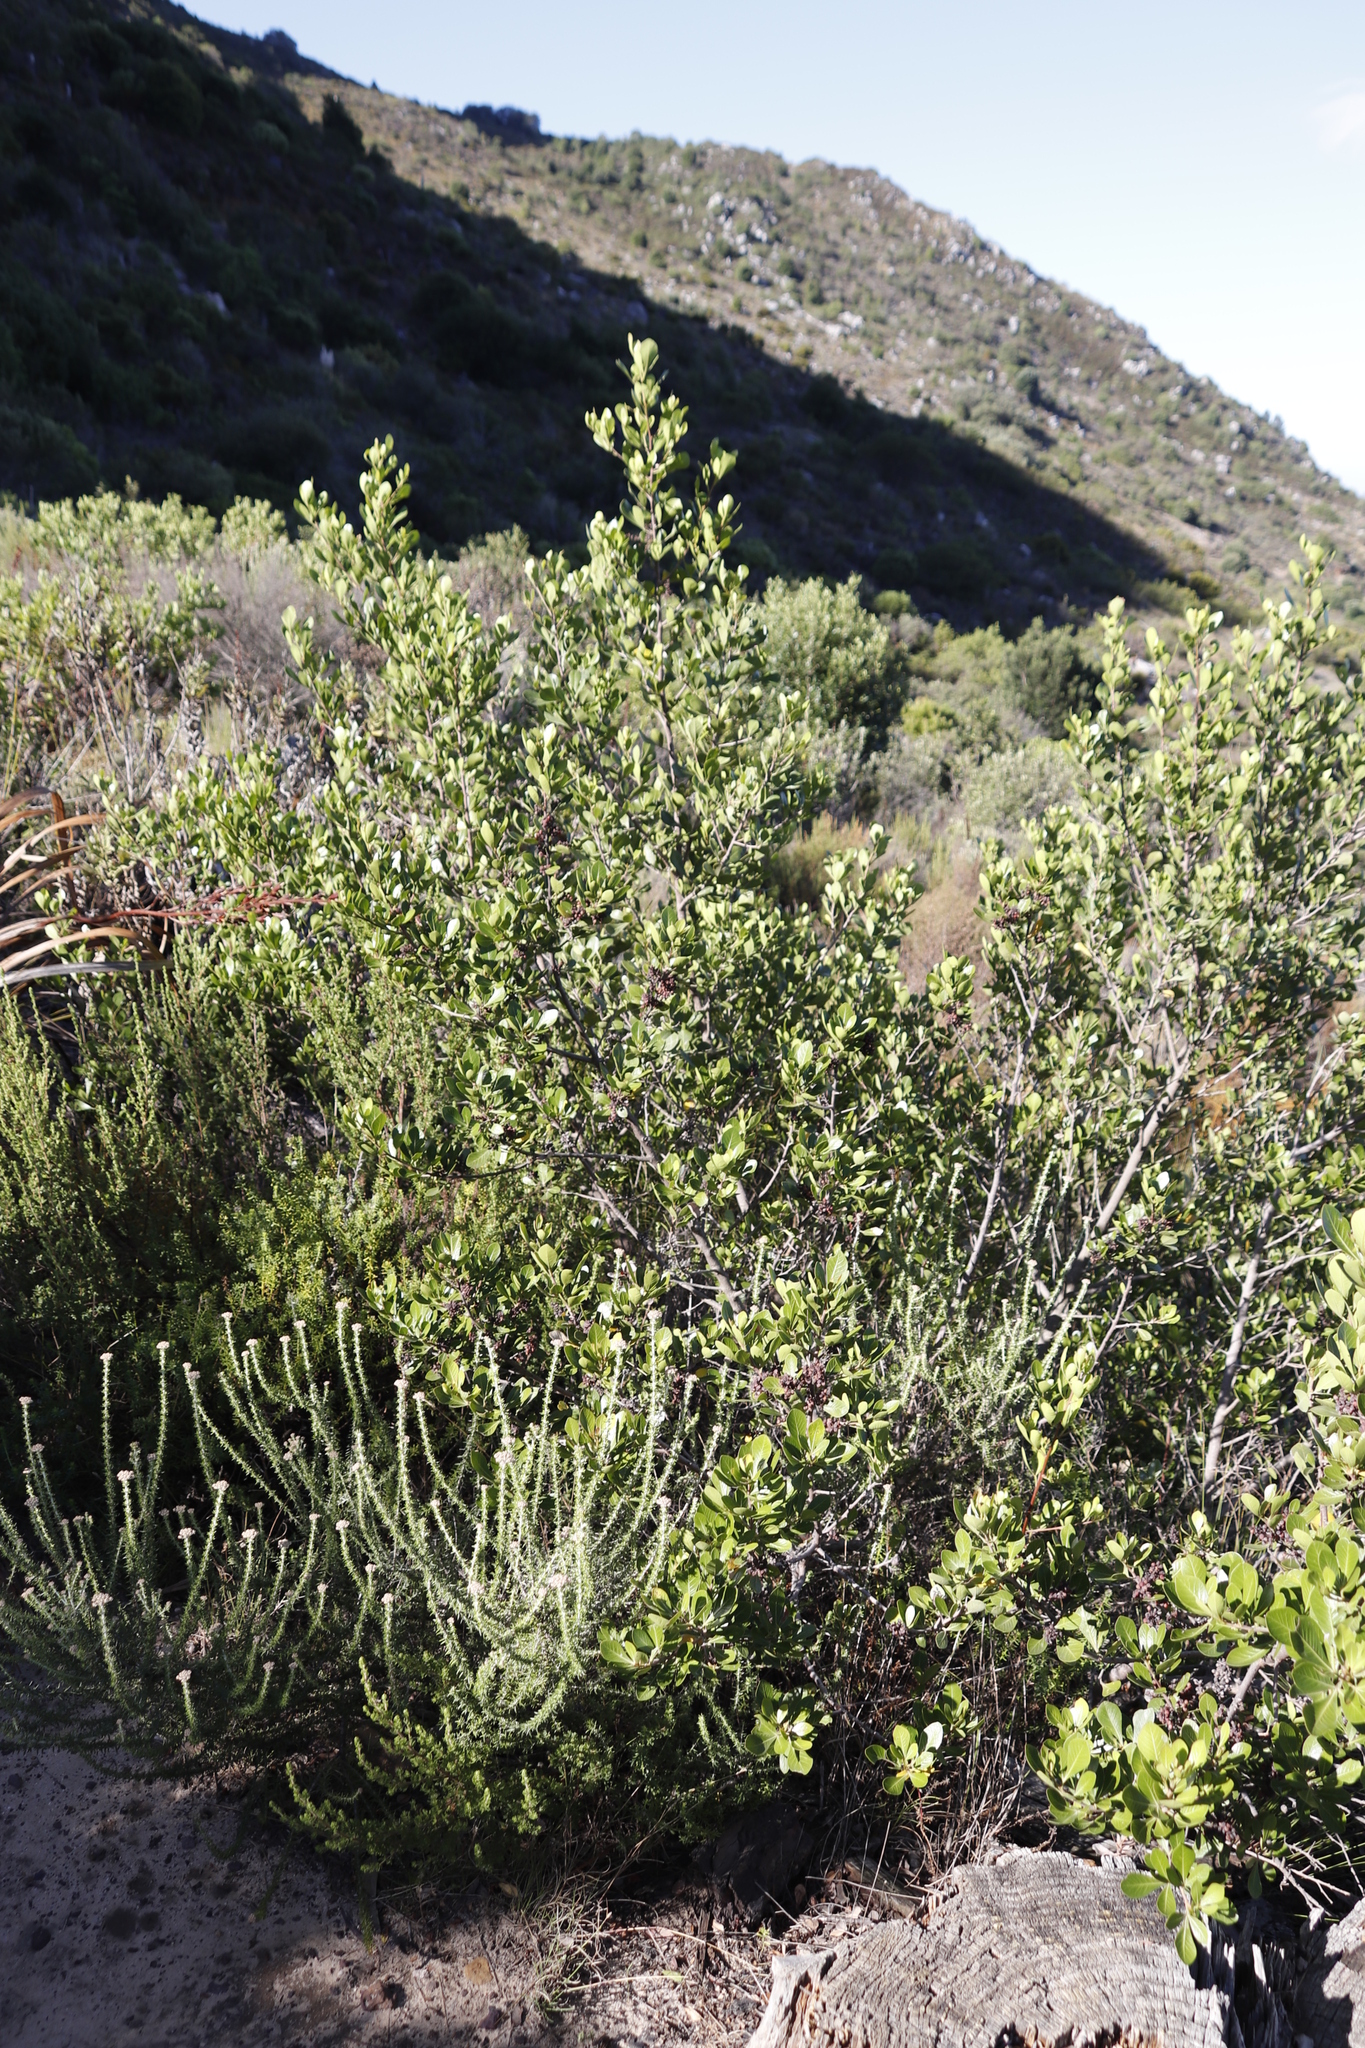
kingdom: Plantae
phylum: Tracheophyta
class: Magnoliopsida
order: Sapindales
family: Anacardiaceae
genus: Searsia
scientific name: Searsia lucida
